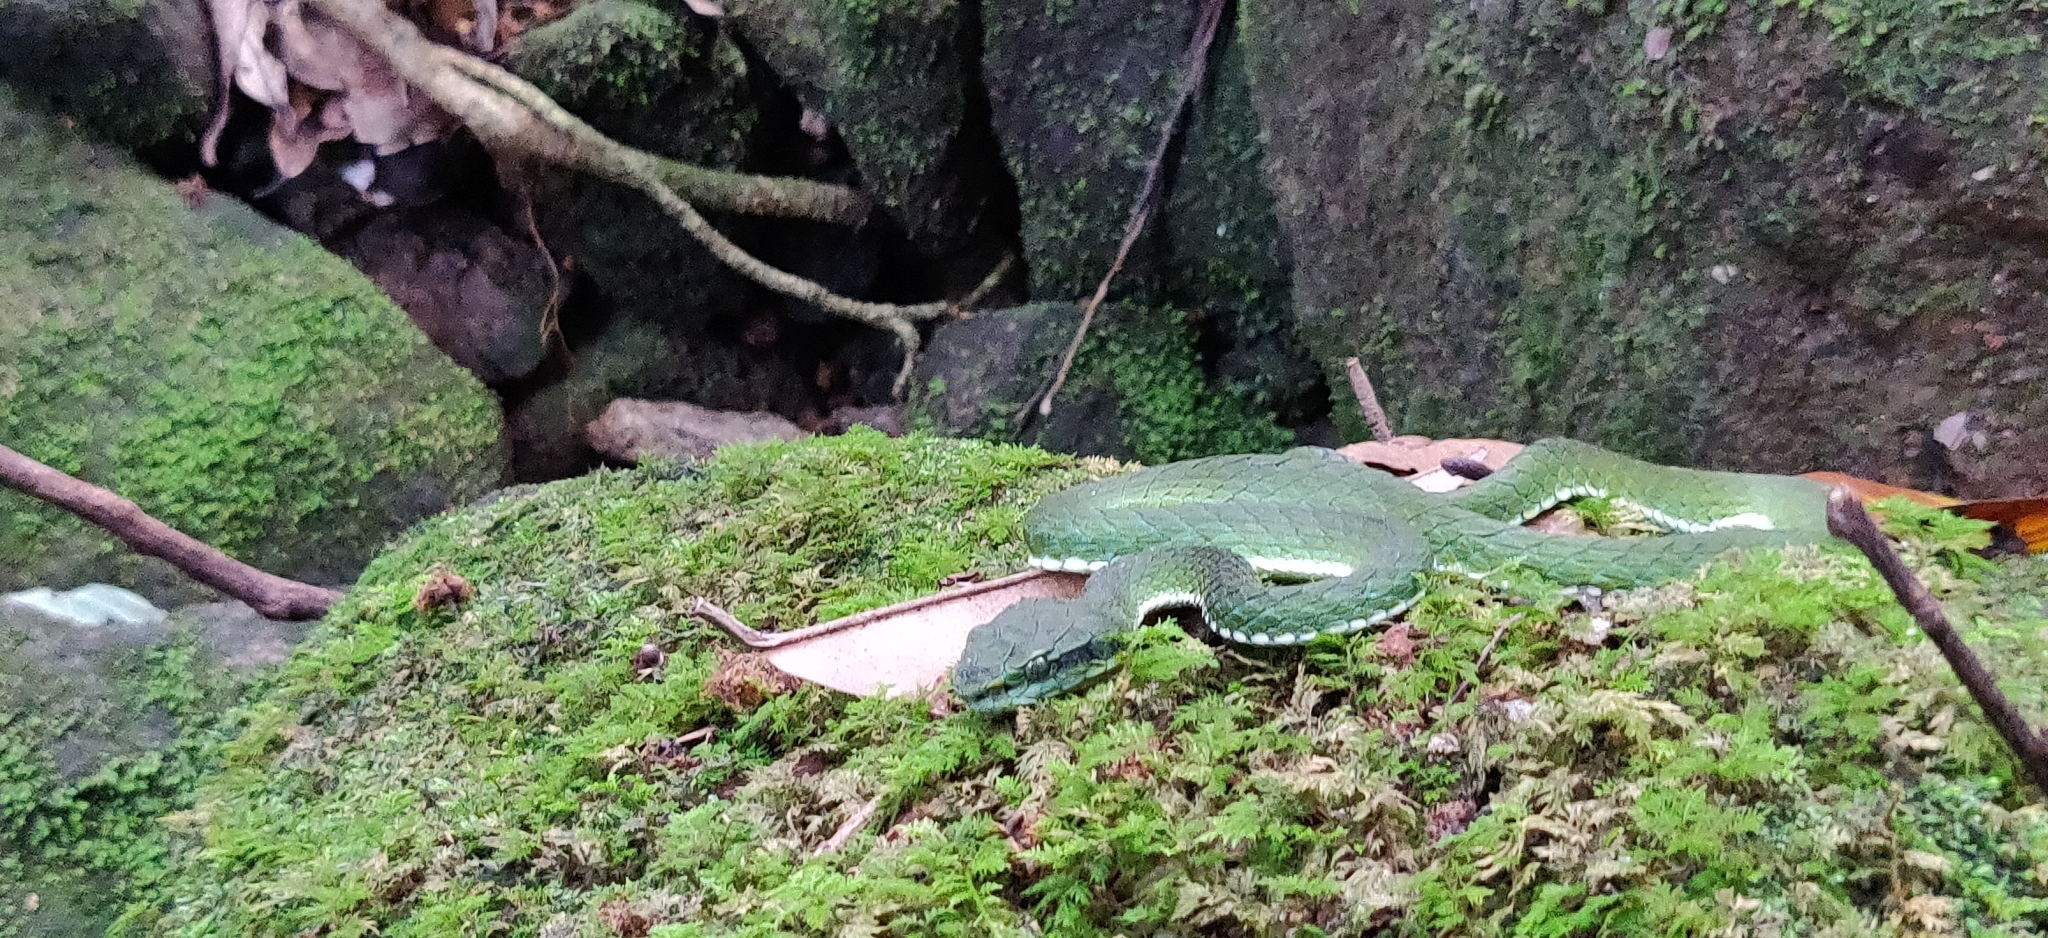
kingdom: Animalia
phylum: Chordata
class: Squamata
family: Viperidae
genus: Craspedocephalus
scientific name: Craspedocephalus macrolepis
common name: Large-scaled pit viper
